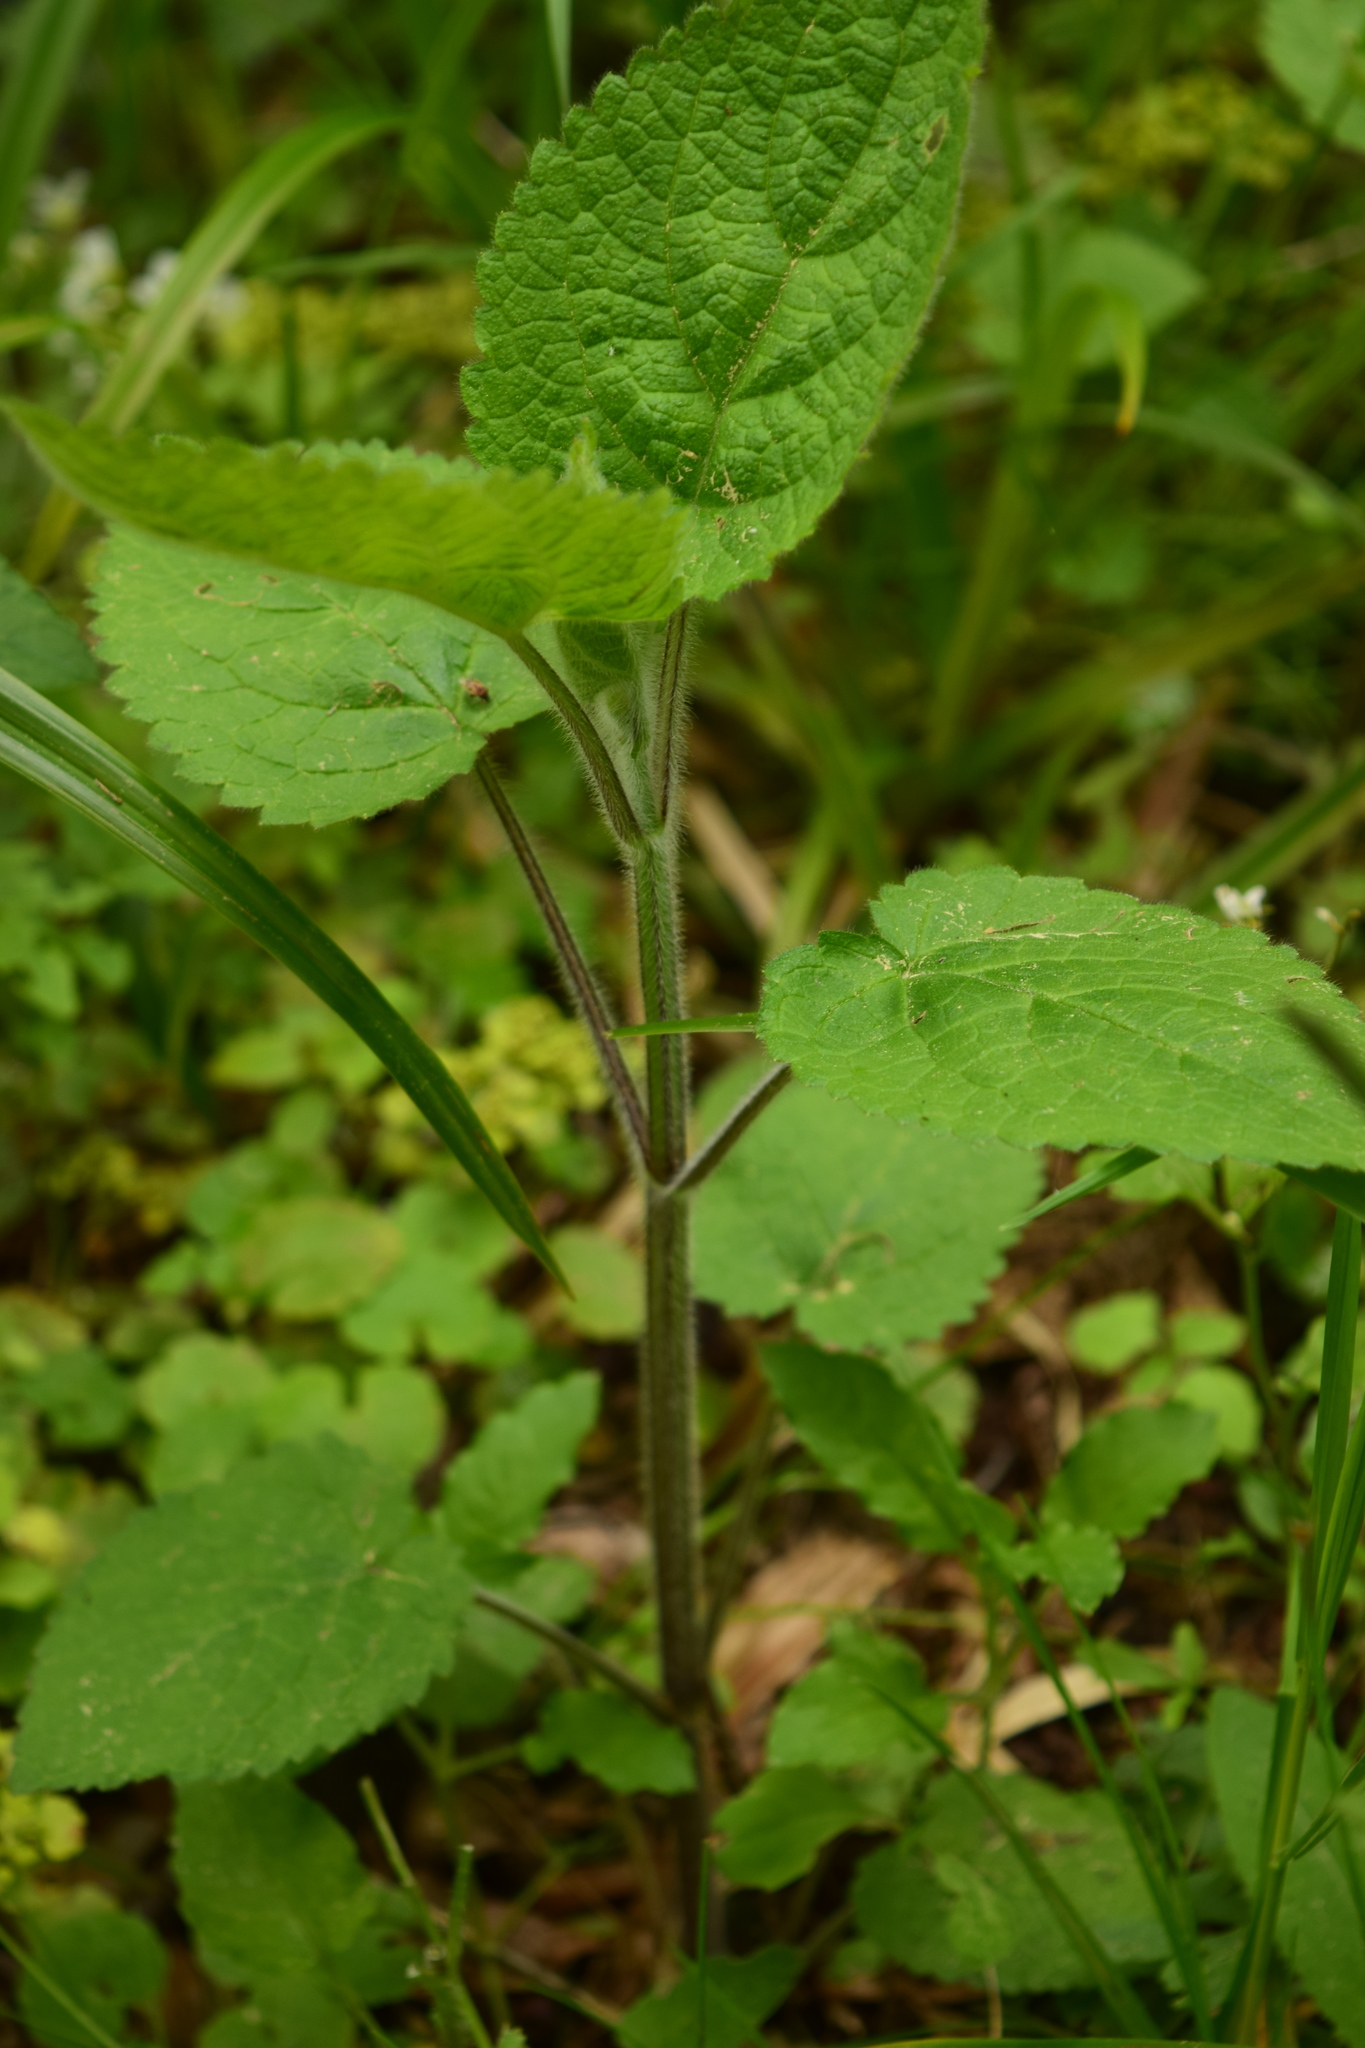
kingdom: Plantae
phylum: Tracheophyta
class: Magnoliopsida
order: Lamiales
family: Lamiaceae
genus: Stachys
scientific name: Stachys sylvatica
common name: Hedge woundwort
